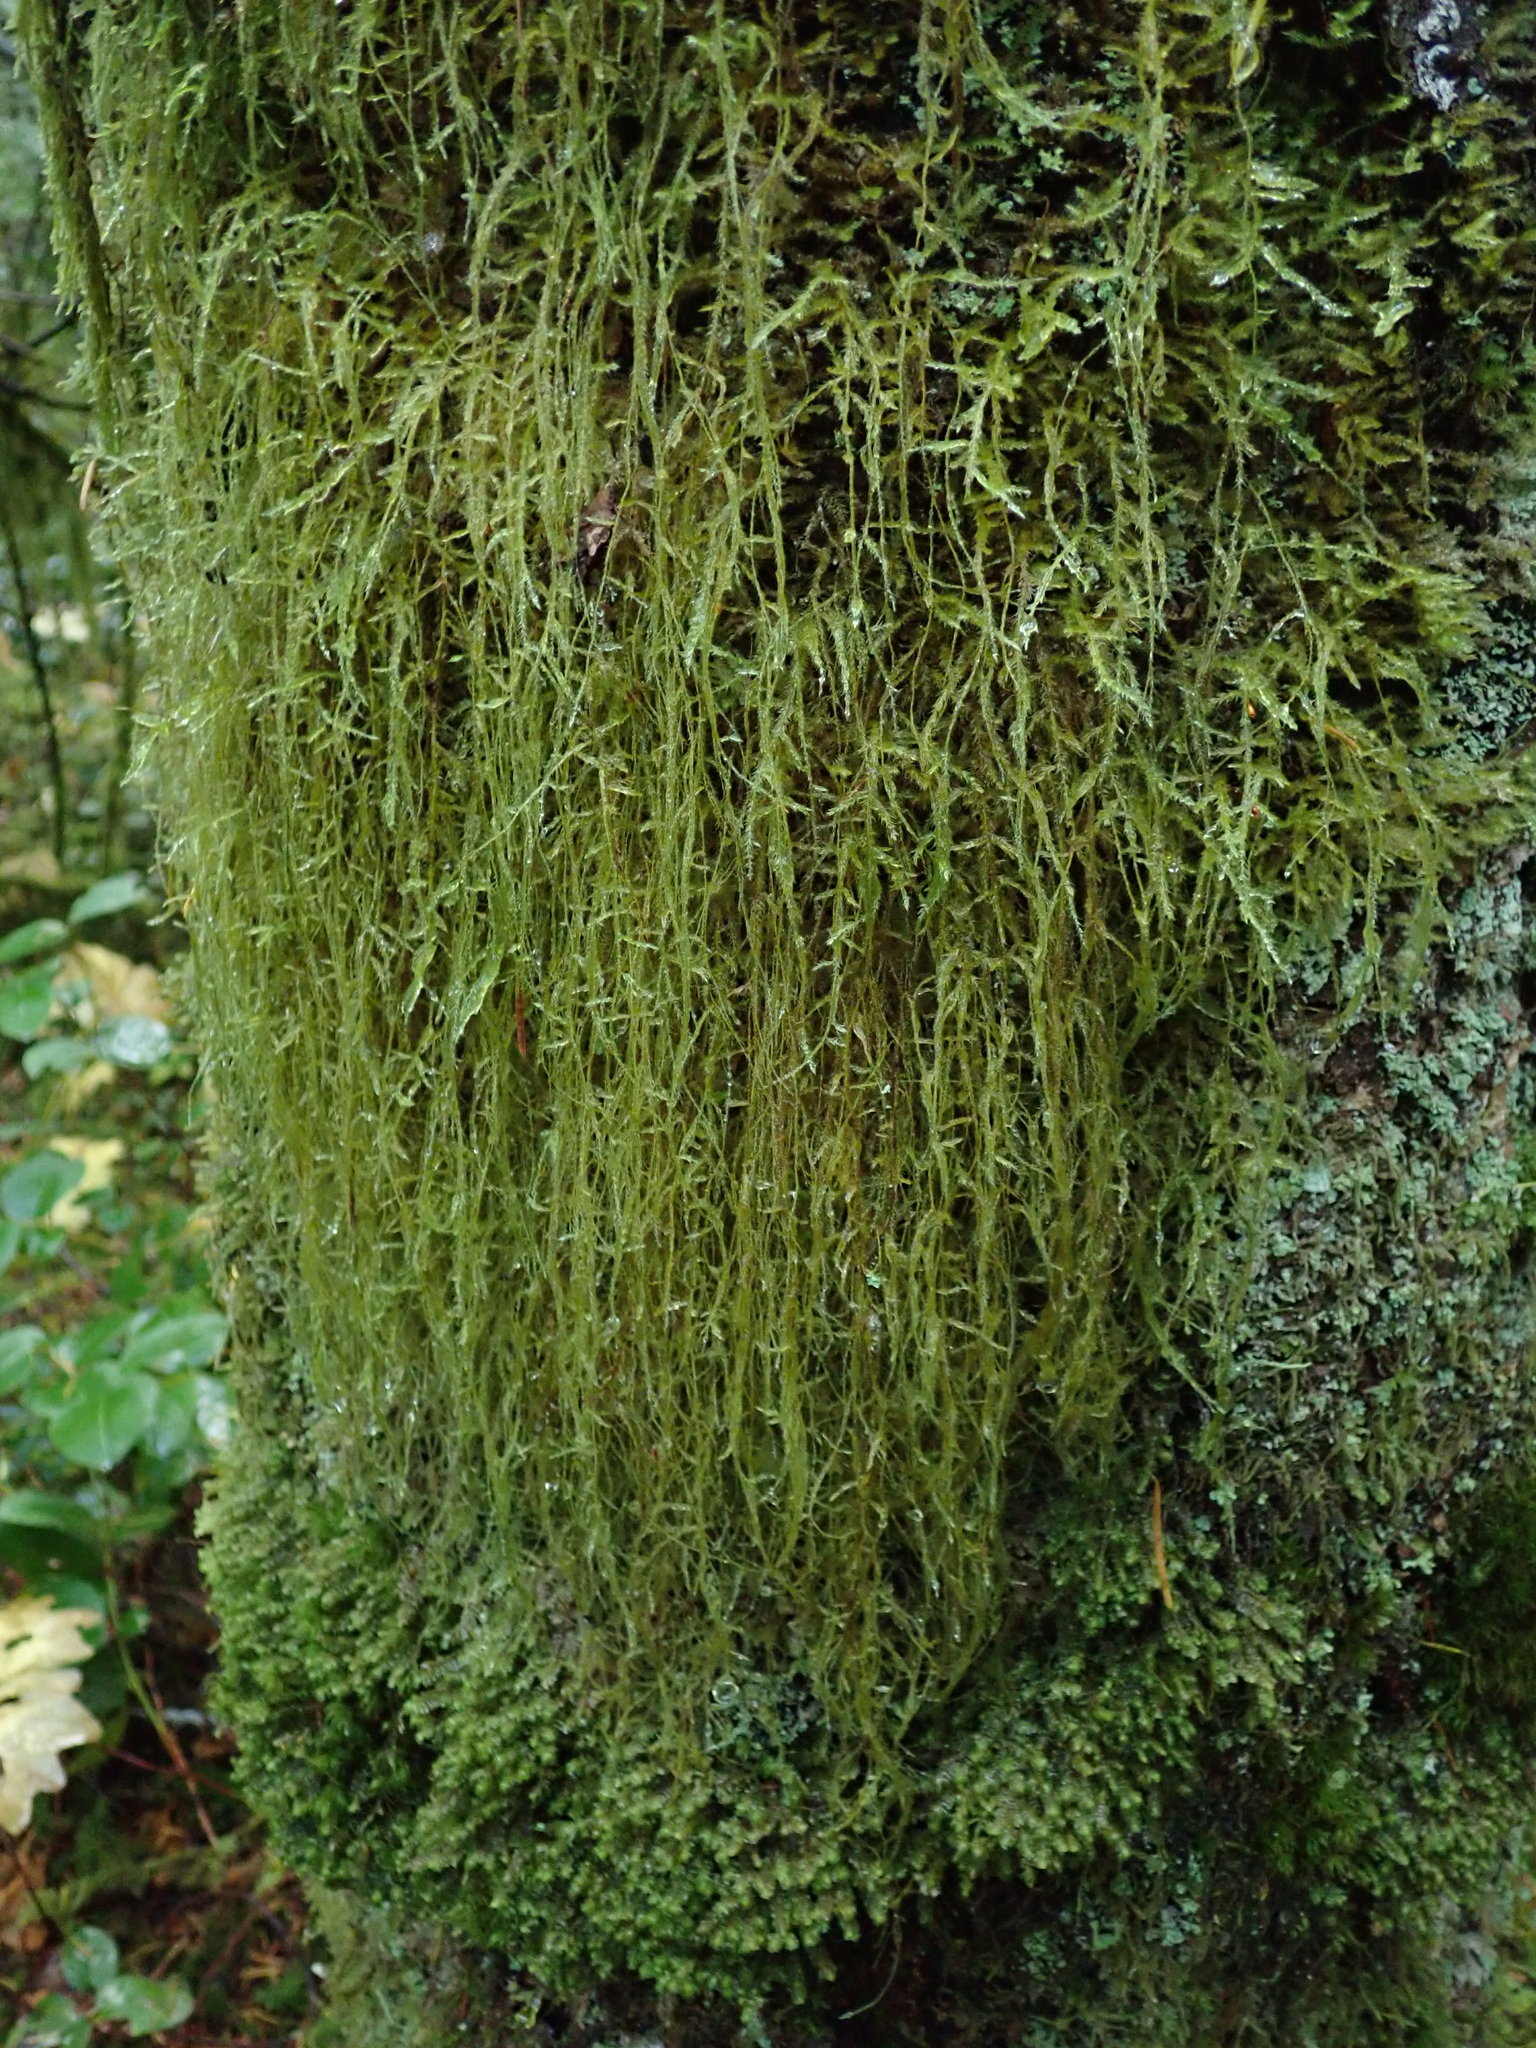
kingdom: Plantae
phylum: Bryophyta
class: Bryopsida
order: Hypnales
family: Lembophyllaceae
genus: Pseudisothecium
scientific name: Pseudisothecium stoloniferum
